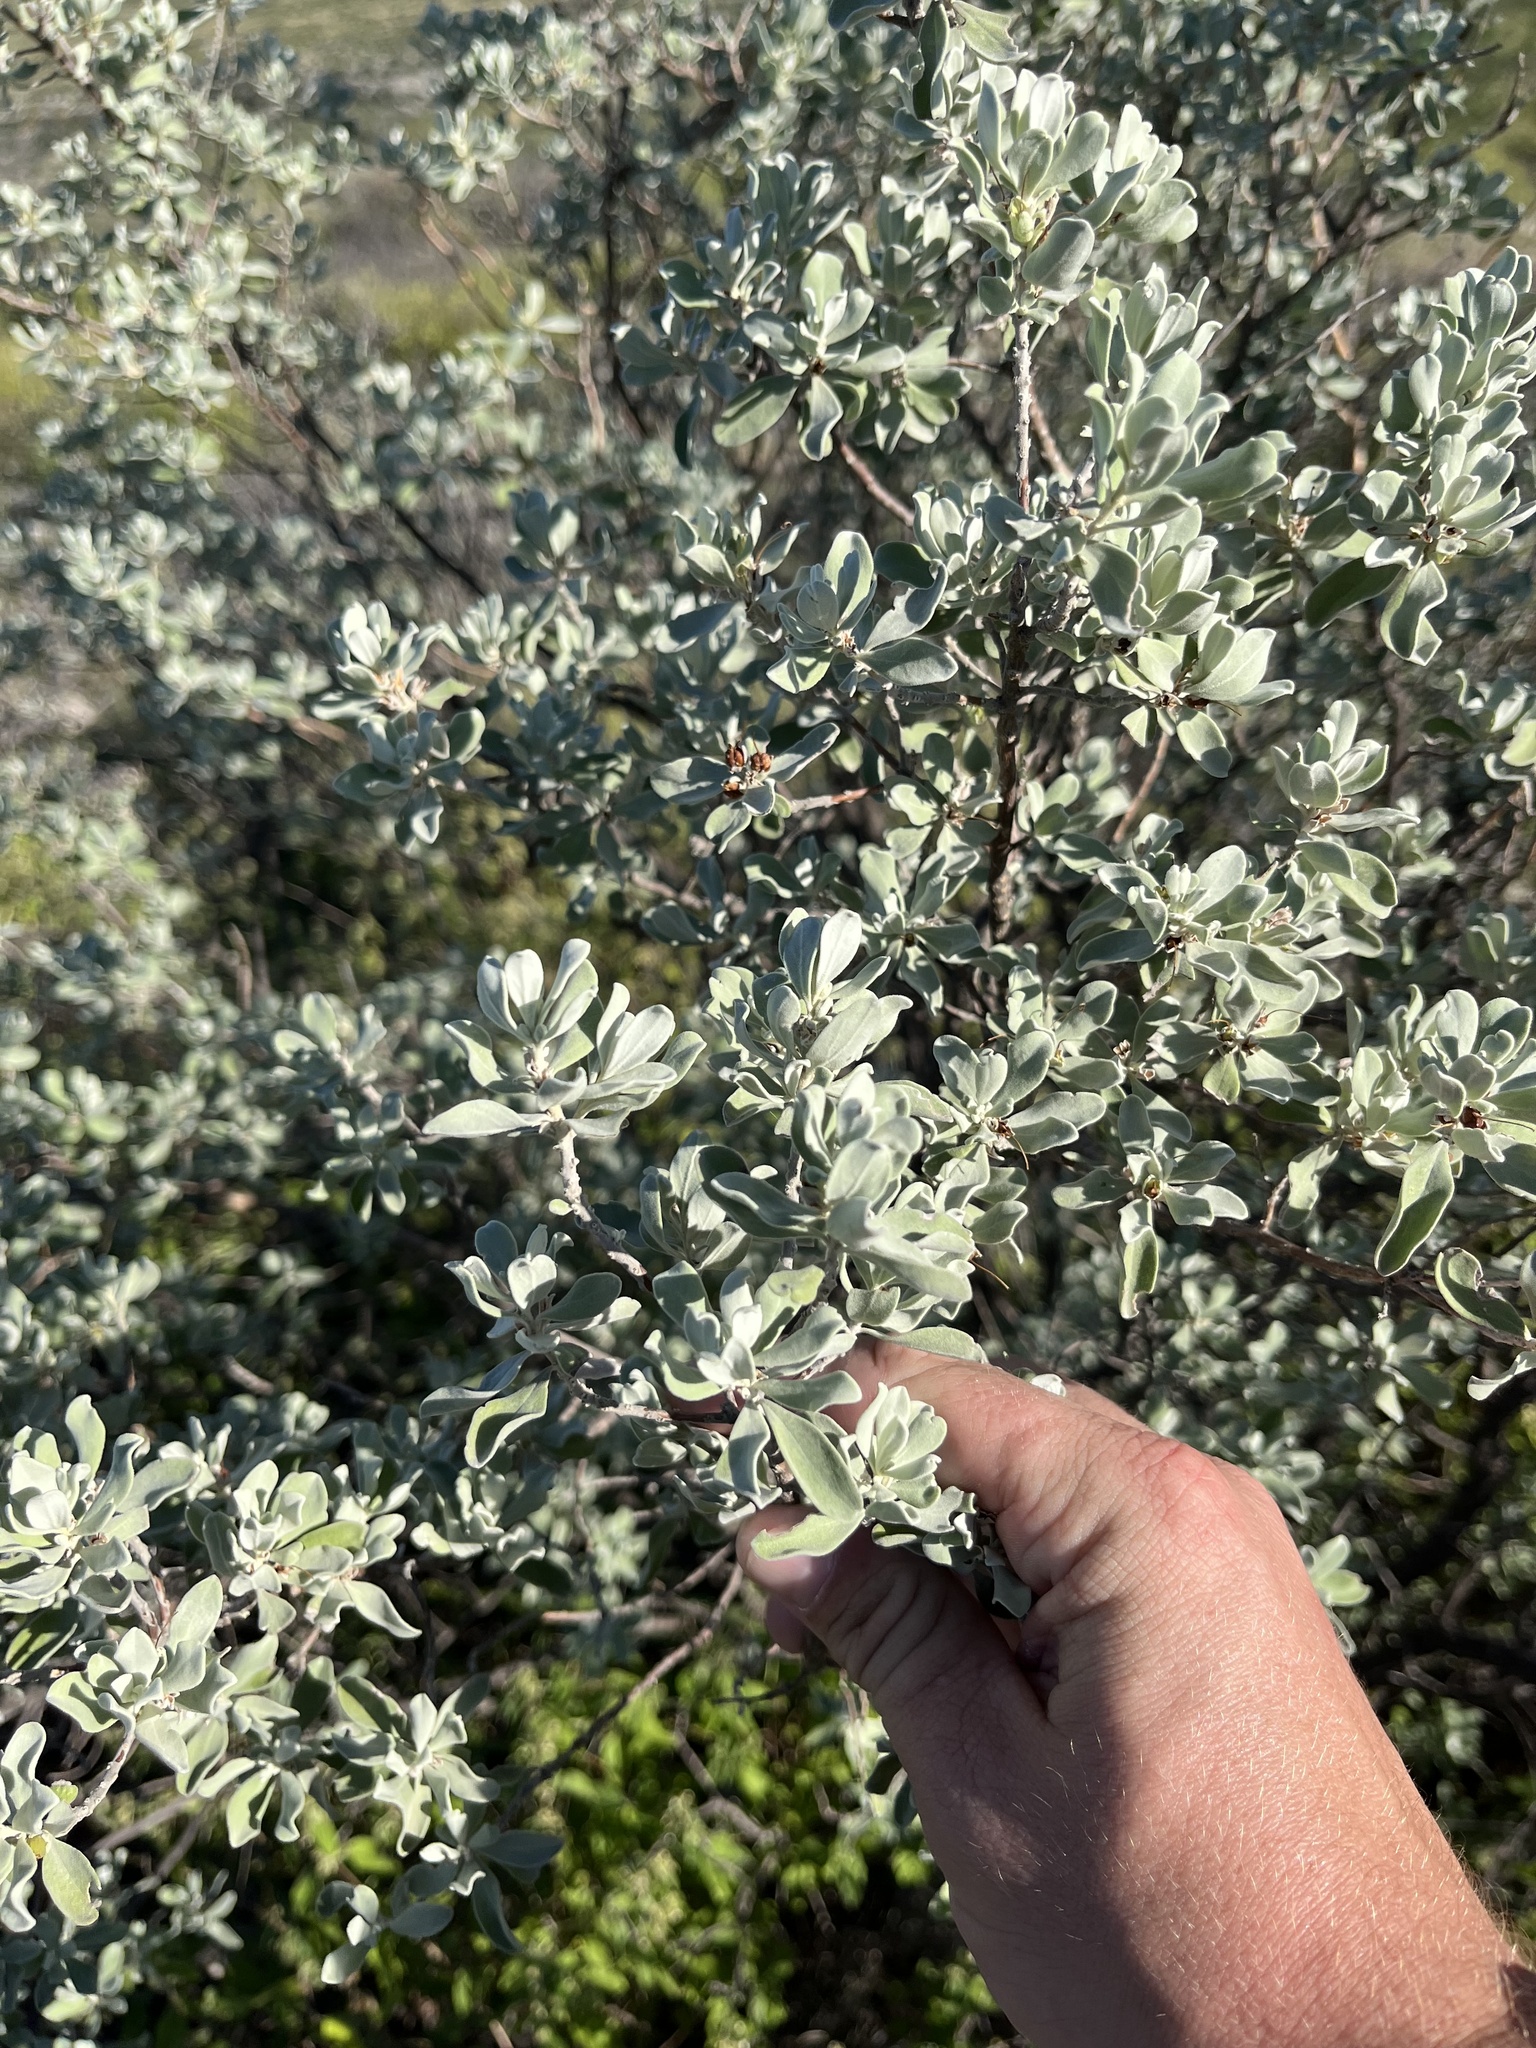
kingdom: Plantae
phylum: Tracheophyta
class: Magnoliopsida
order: Lamiales
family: Scrophulariaceae
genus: Leucophyllum
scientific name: Leucophyllum frutescens
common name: Texas silverleaf
